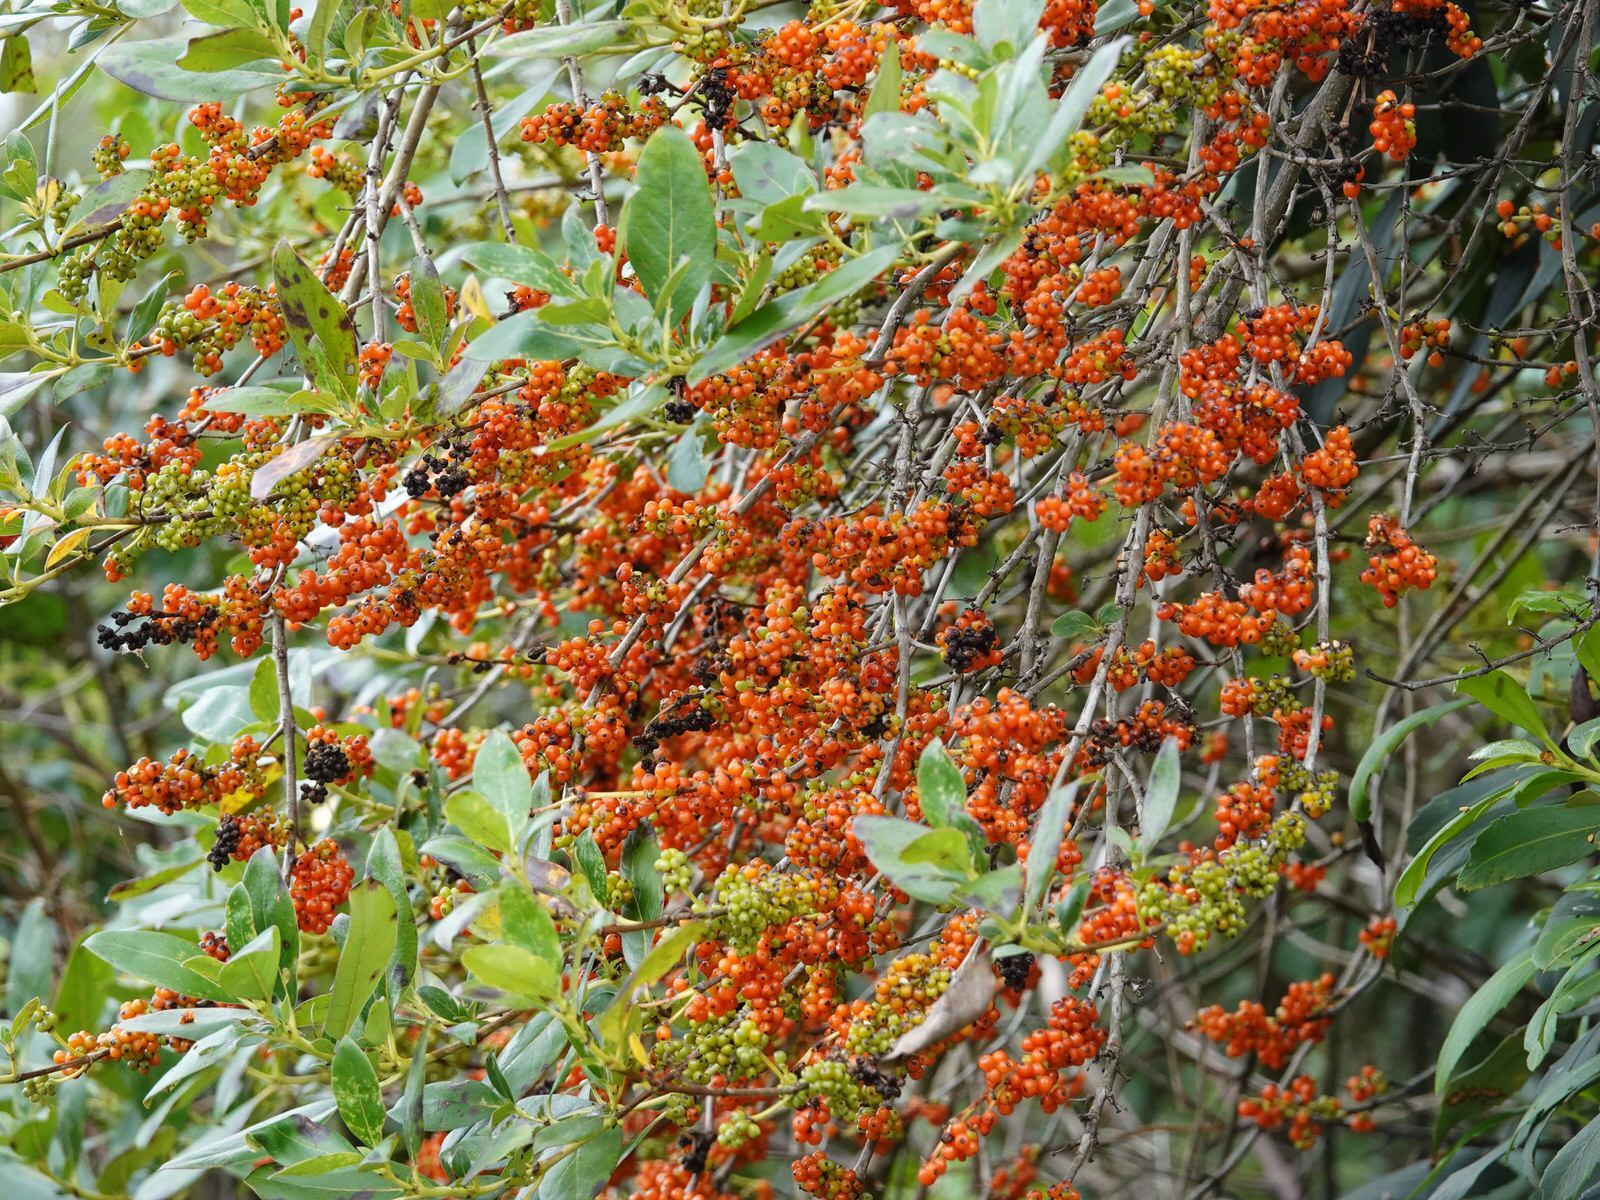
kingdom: Plantae
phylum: Tracheophyta
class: Magnoliopsida
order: Gentianales
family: Rubiaceae
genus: Coprosma
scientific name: Coprosma robusta
